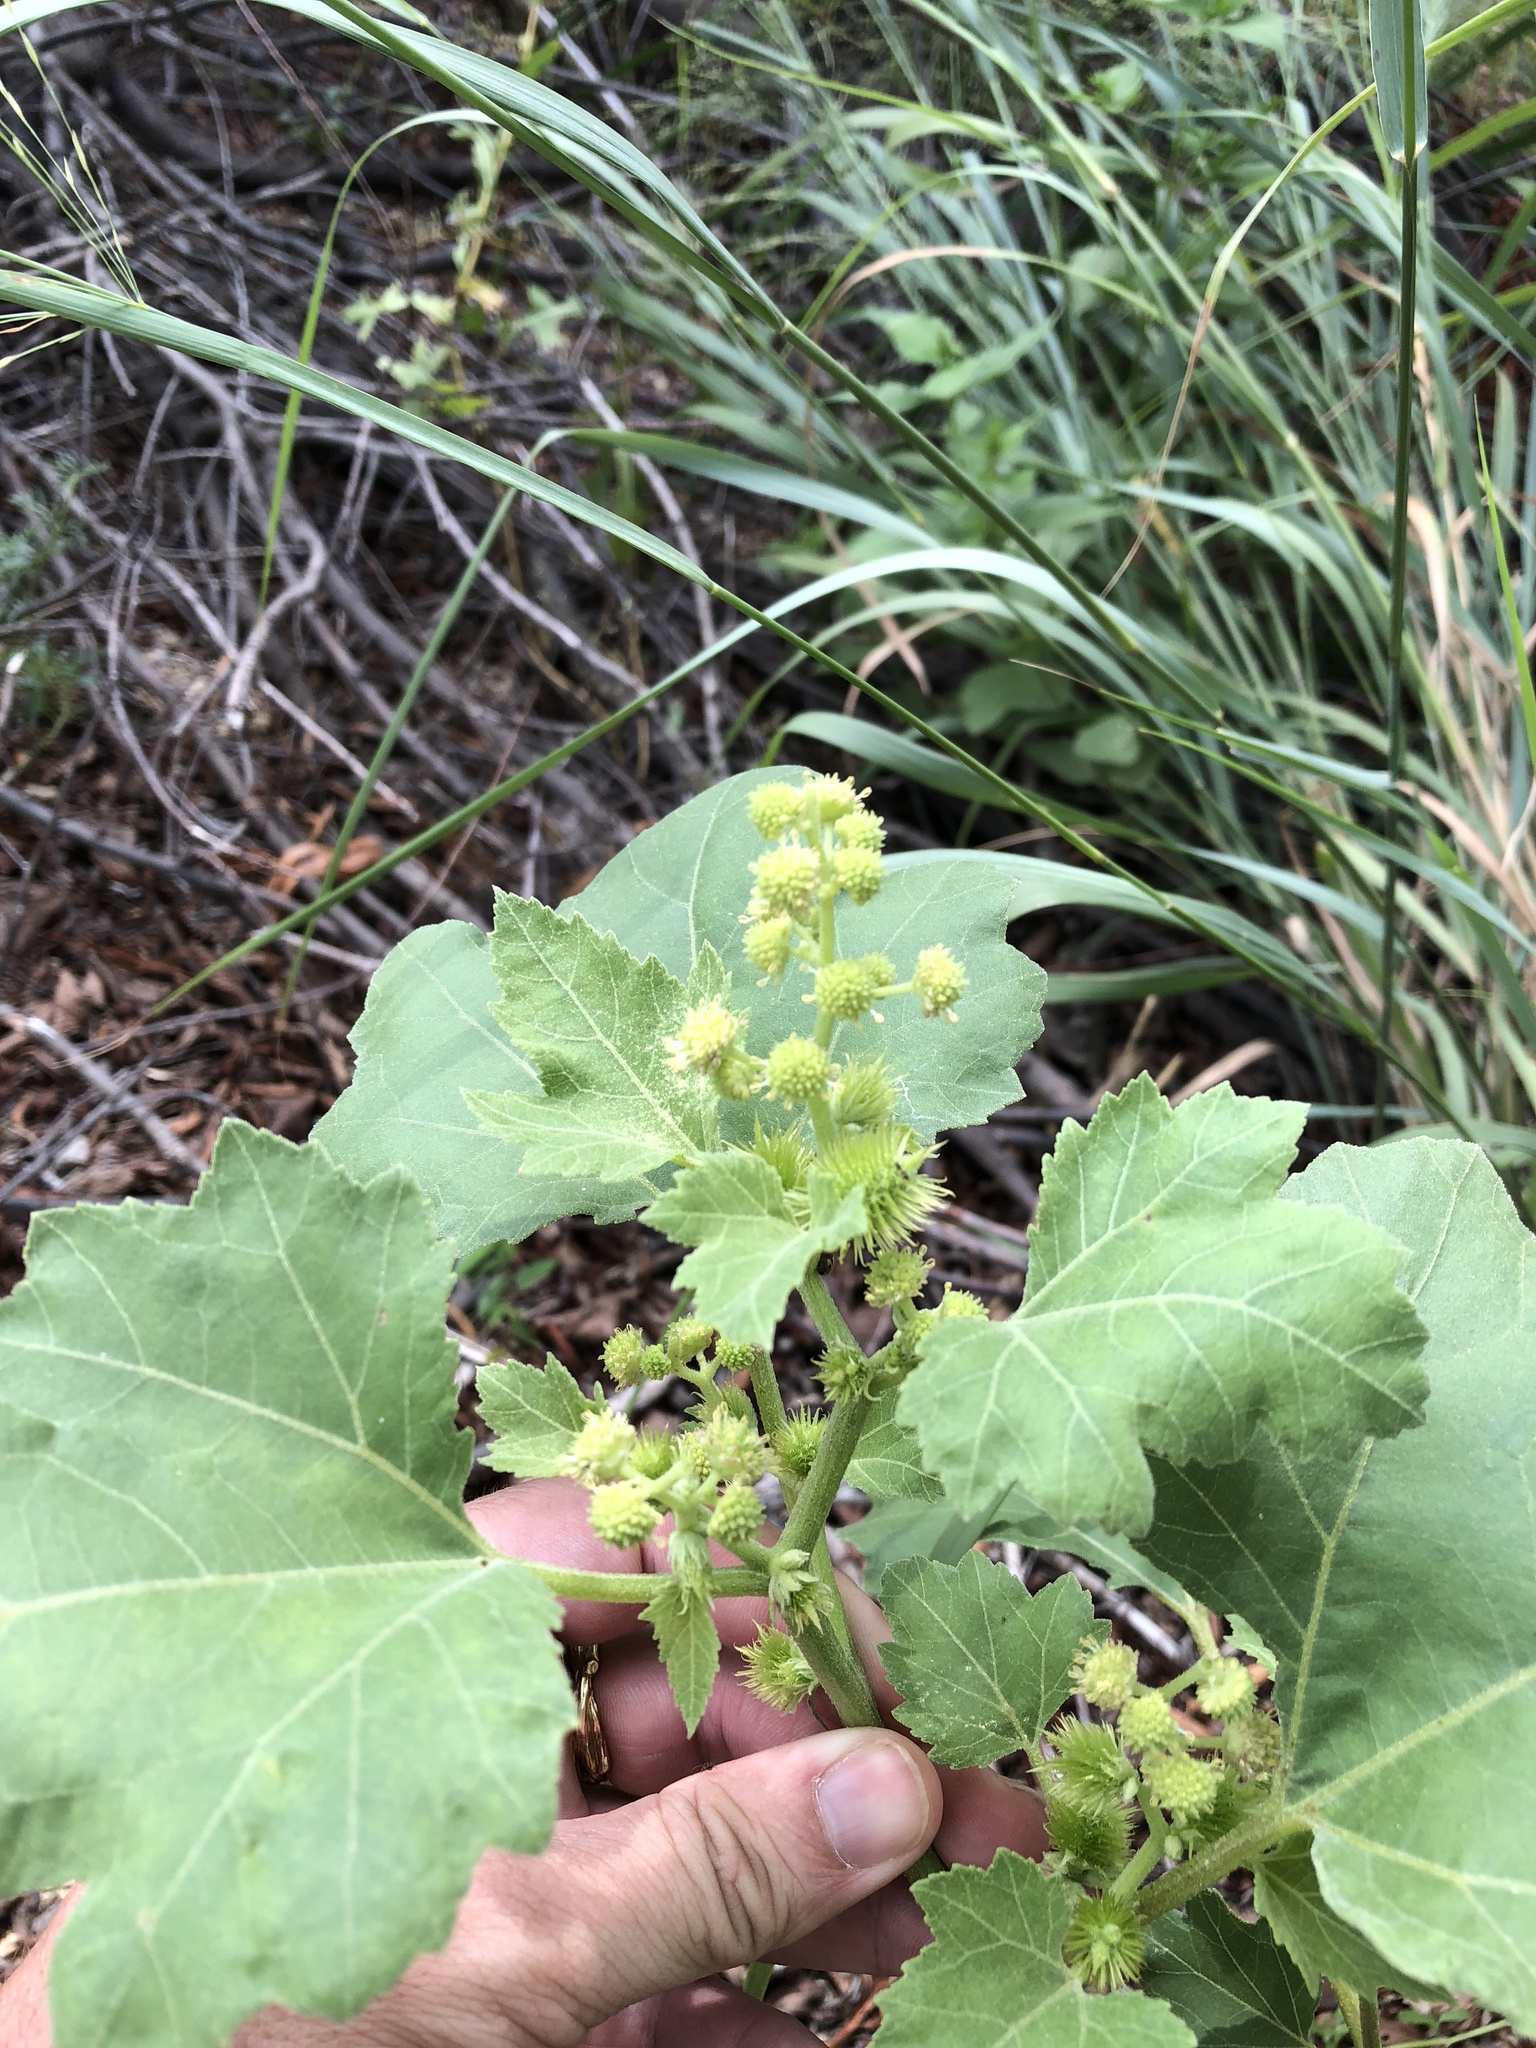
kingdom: Plantae
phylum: Tracheophyta
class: Magnoliopsida
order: Asterales
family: Asteraceae
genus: Xanthium
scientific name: Xanthium strumarium
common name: Rough cocklebur
